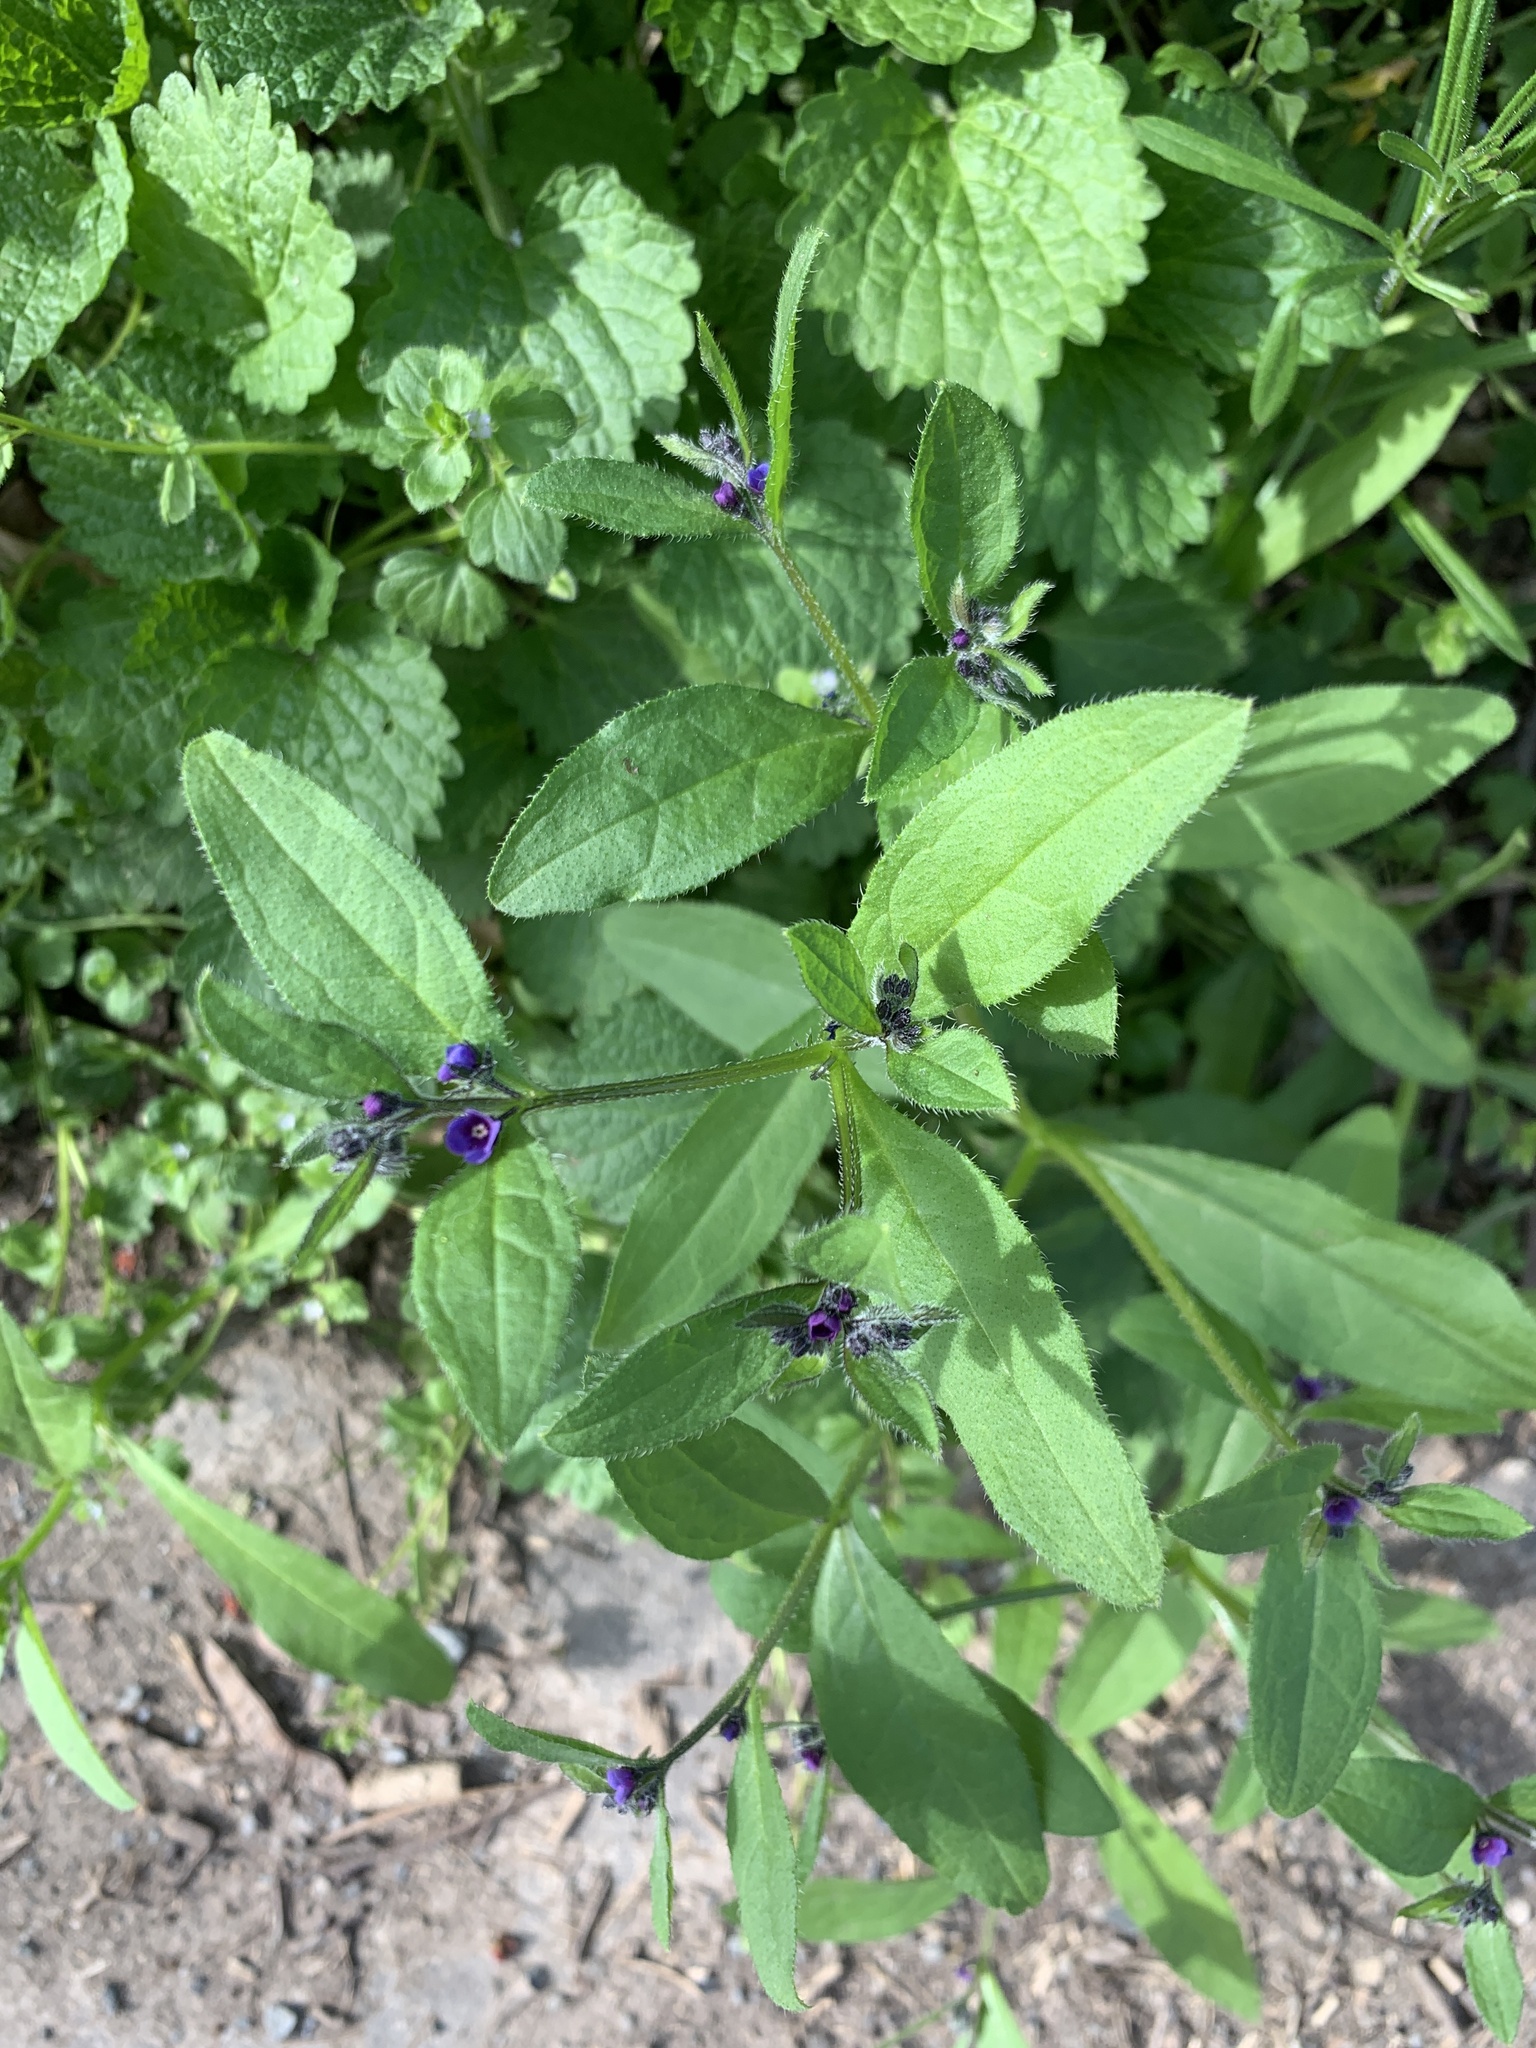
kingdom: Plantae
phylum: Tracheophyta
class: Magnoliopsida
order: Boraginales
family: Boraginaceae
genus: Asperugo
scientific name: Asperugo procumbens
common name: Madwort
